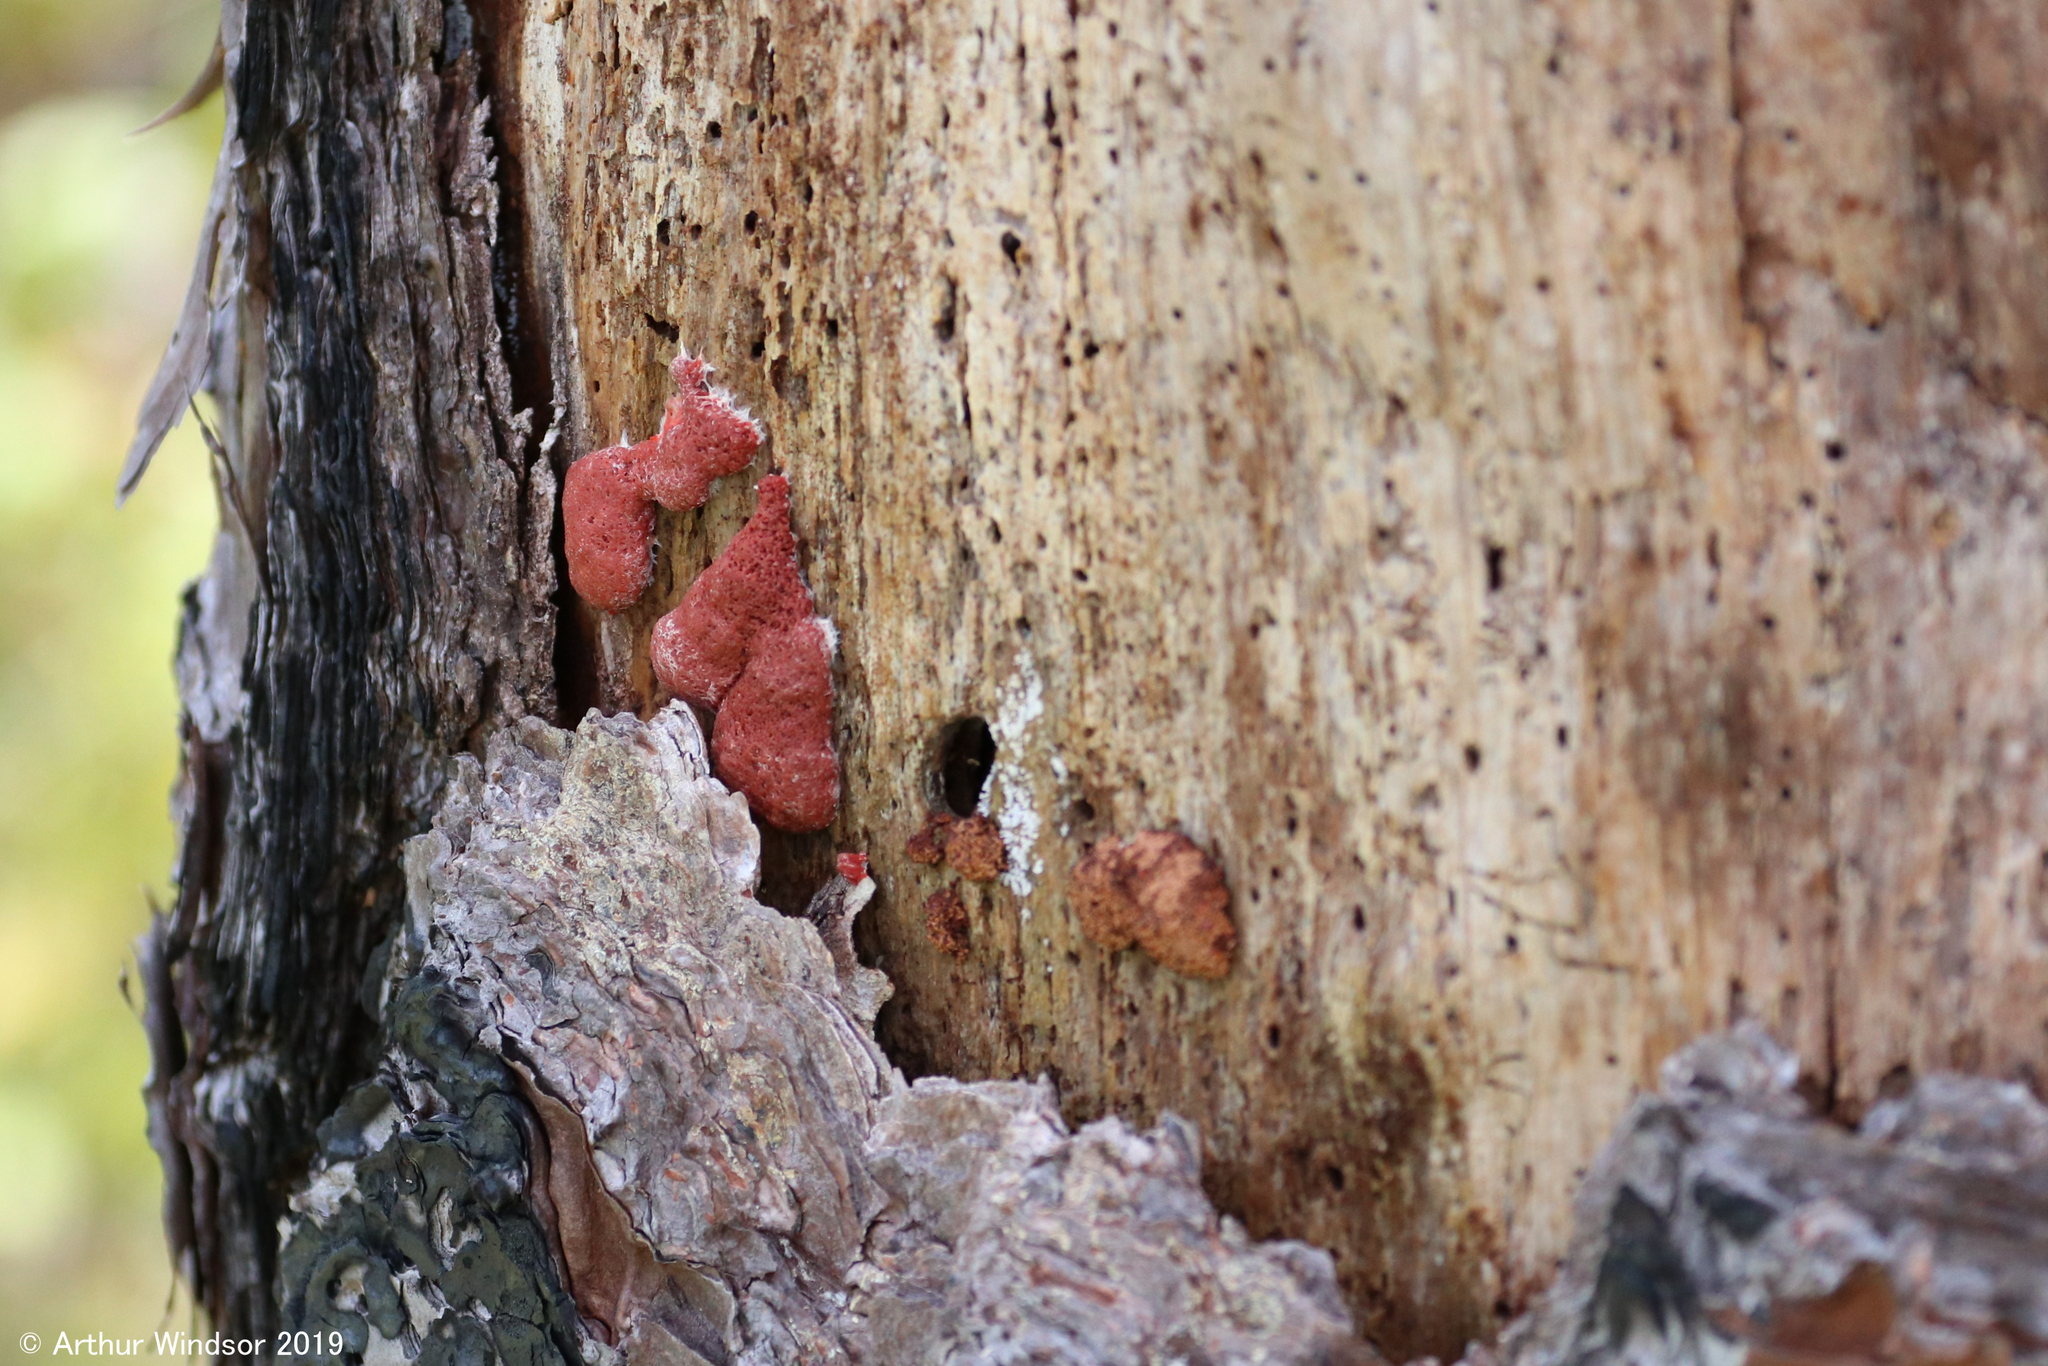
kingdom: Protozoa
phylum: Mycetozoa
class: Myxomycetes
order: Cribrariales
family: Tubiferaceae
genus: Tubifera
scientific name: Tubifera ferruginosa
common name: Red raspberry slime mold
